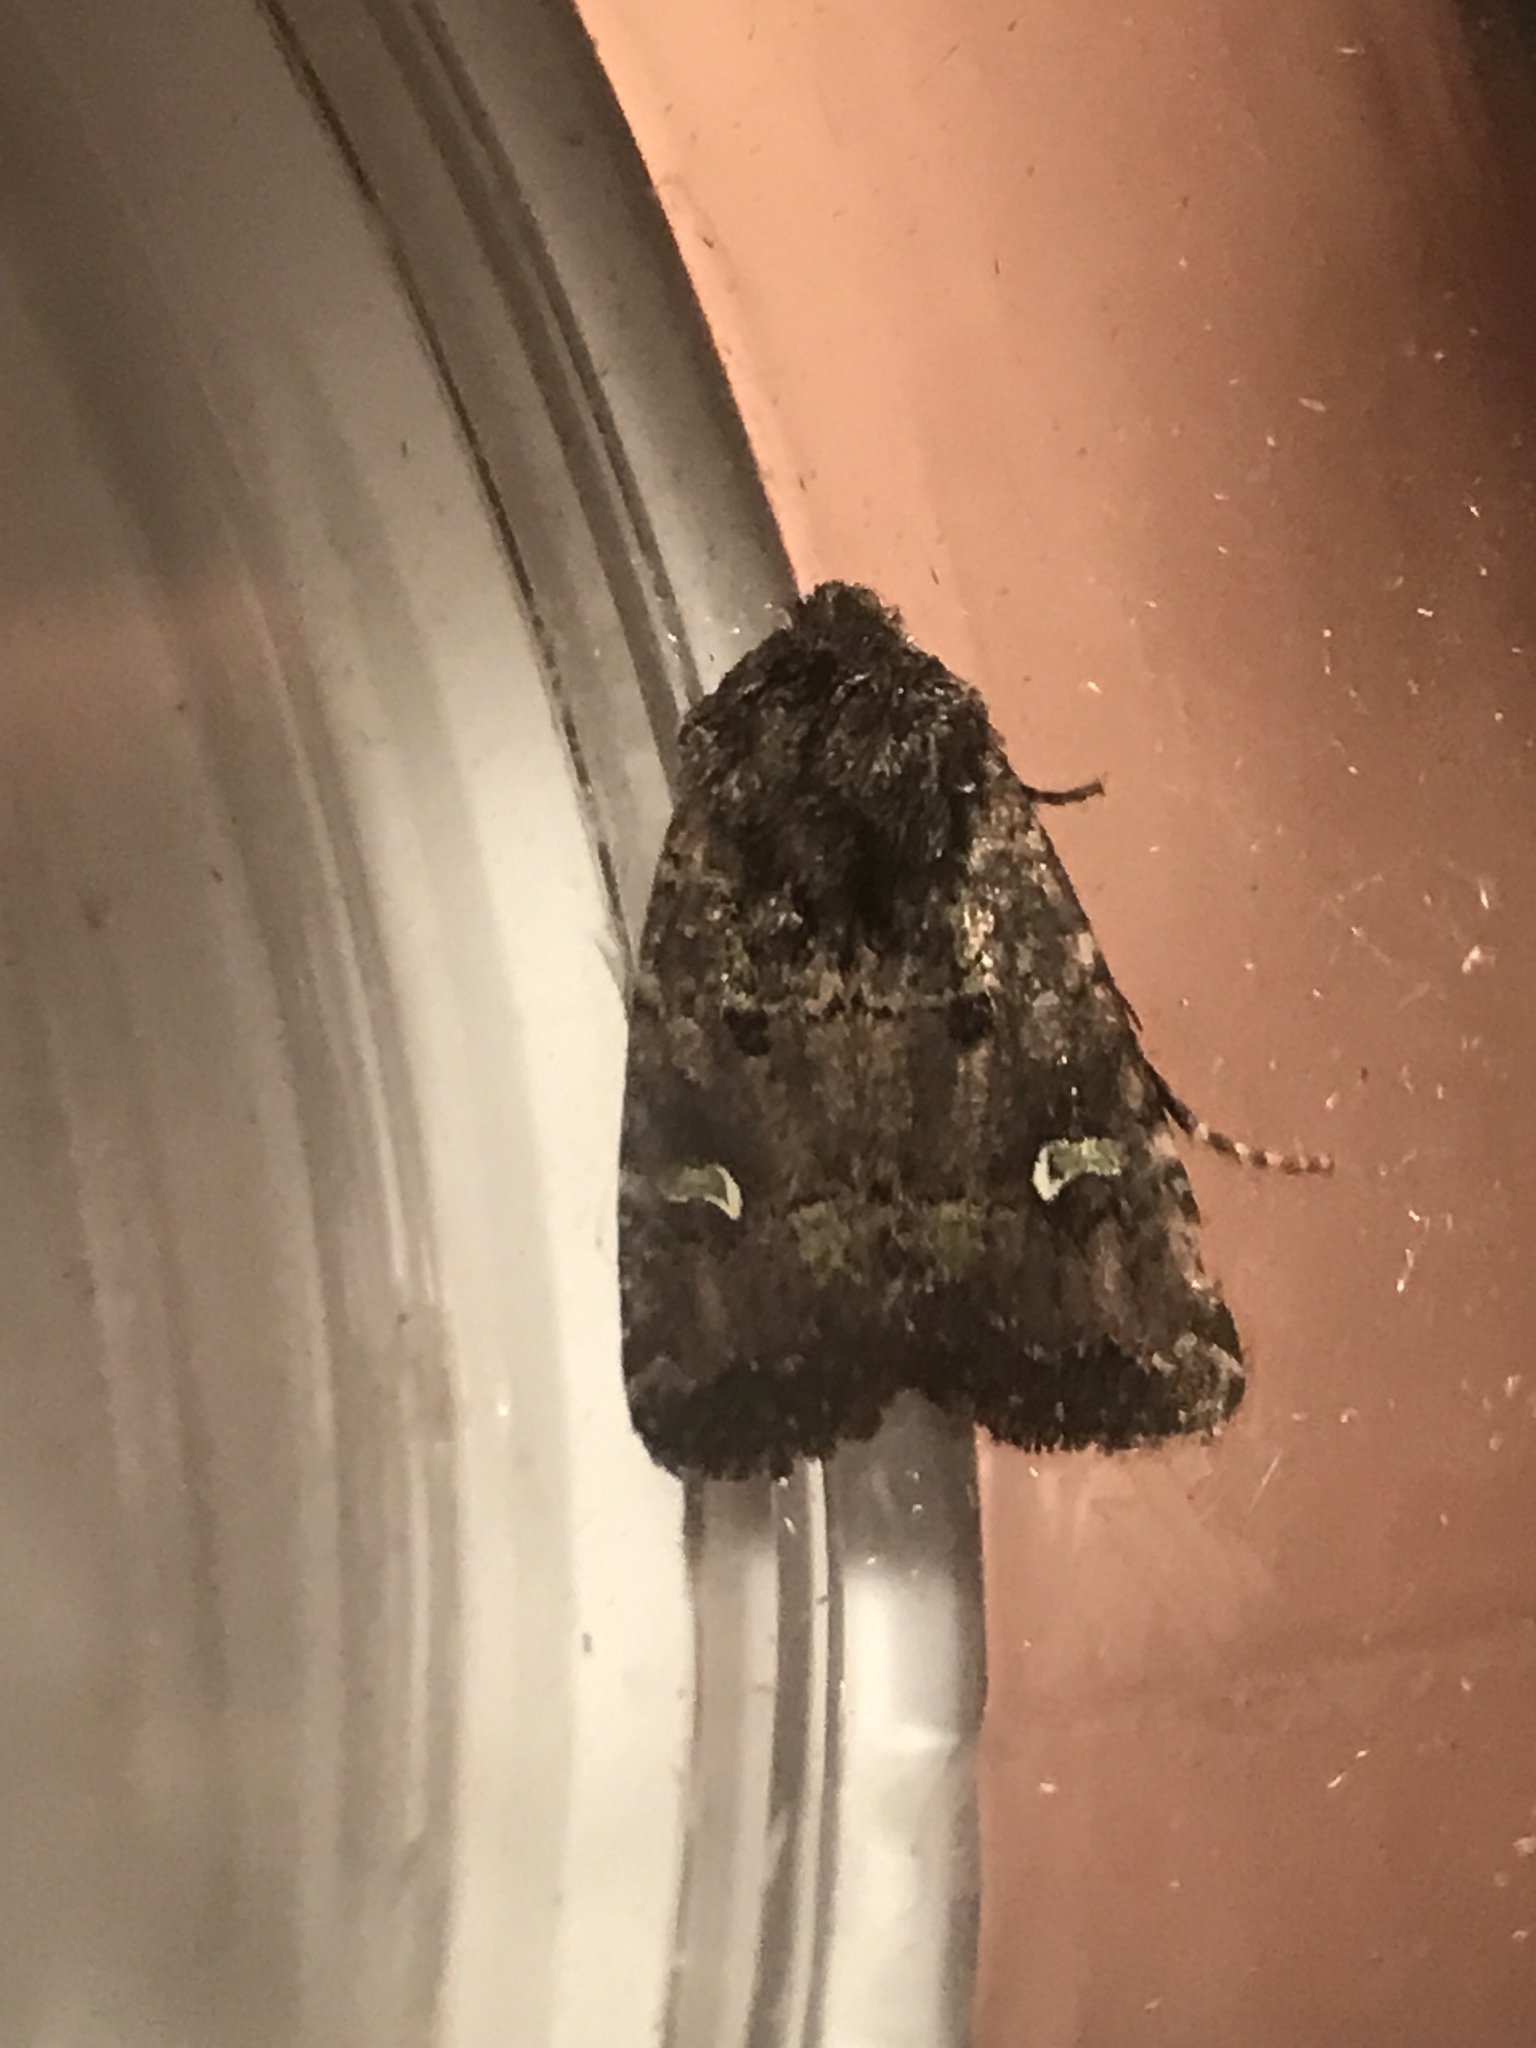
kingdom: Animalia
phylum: Arthropoda
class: Insecta
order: Lepidoptera
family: Noctuidae
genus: Lacinipolia
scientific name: Lacinipolia renigera
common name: Kidney-spotted minor
